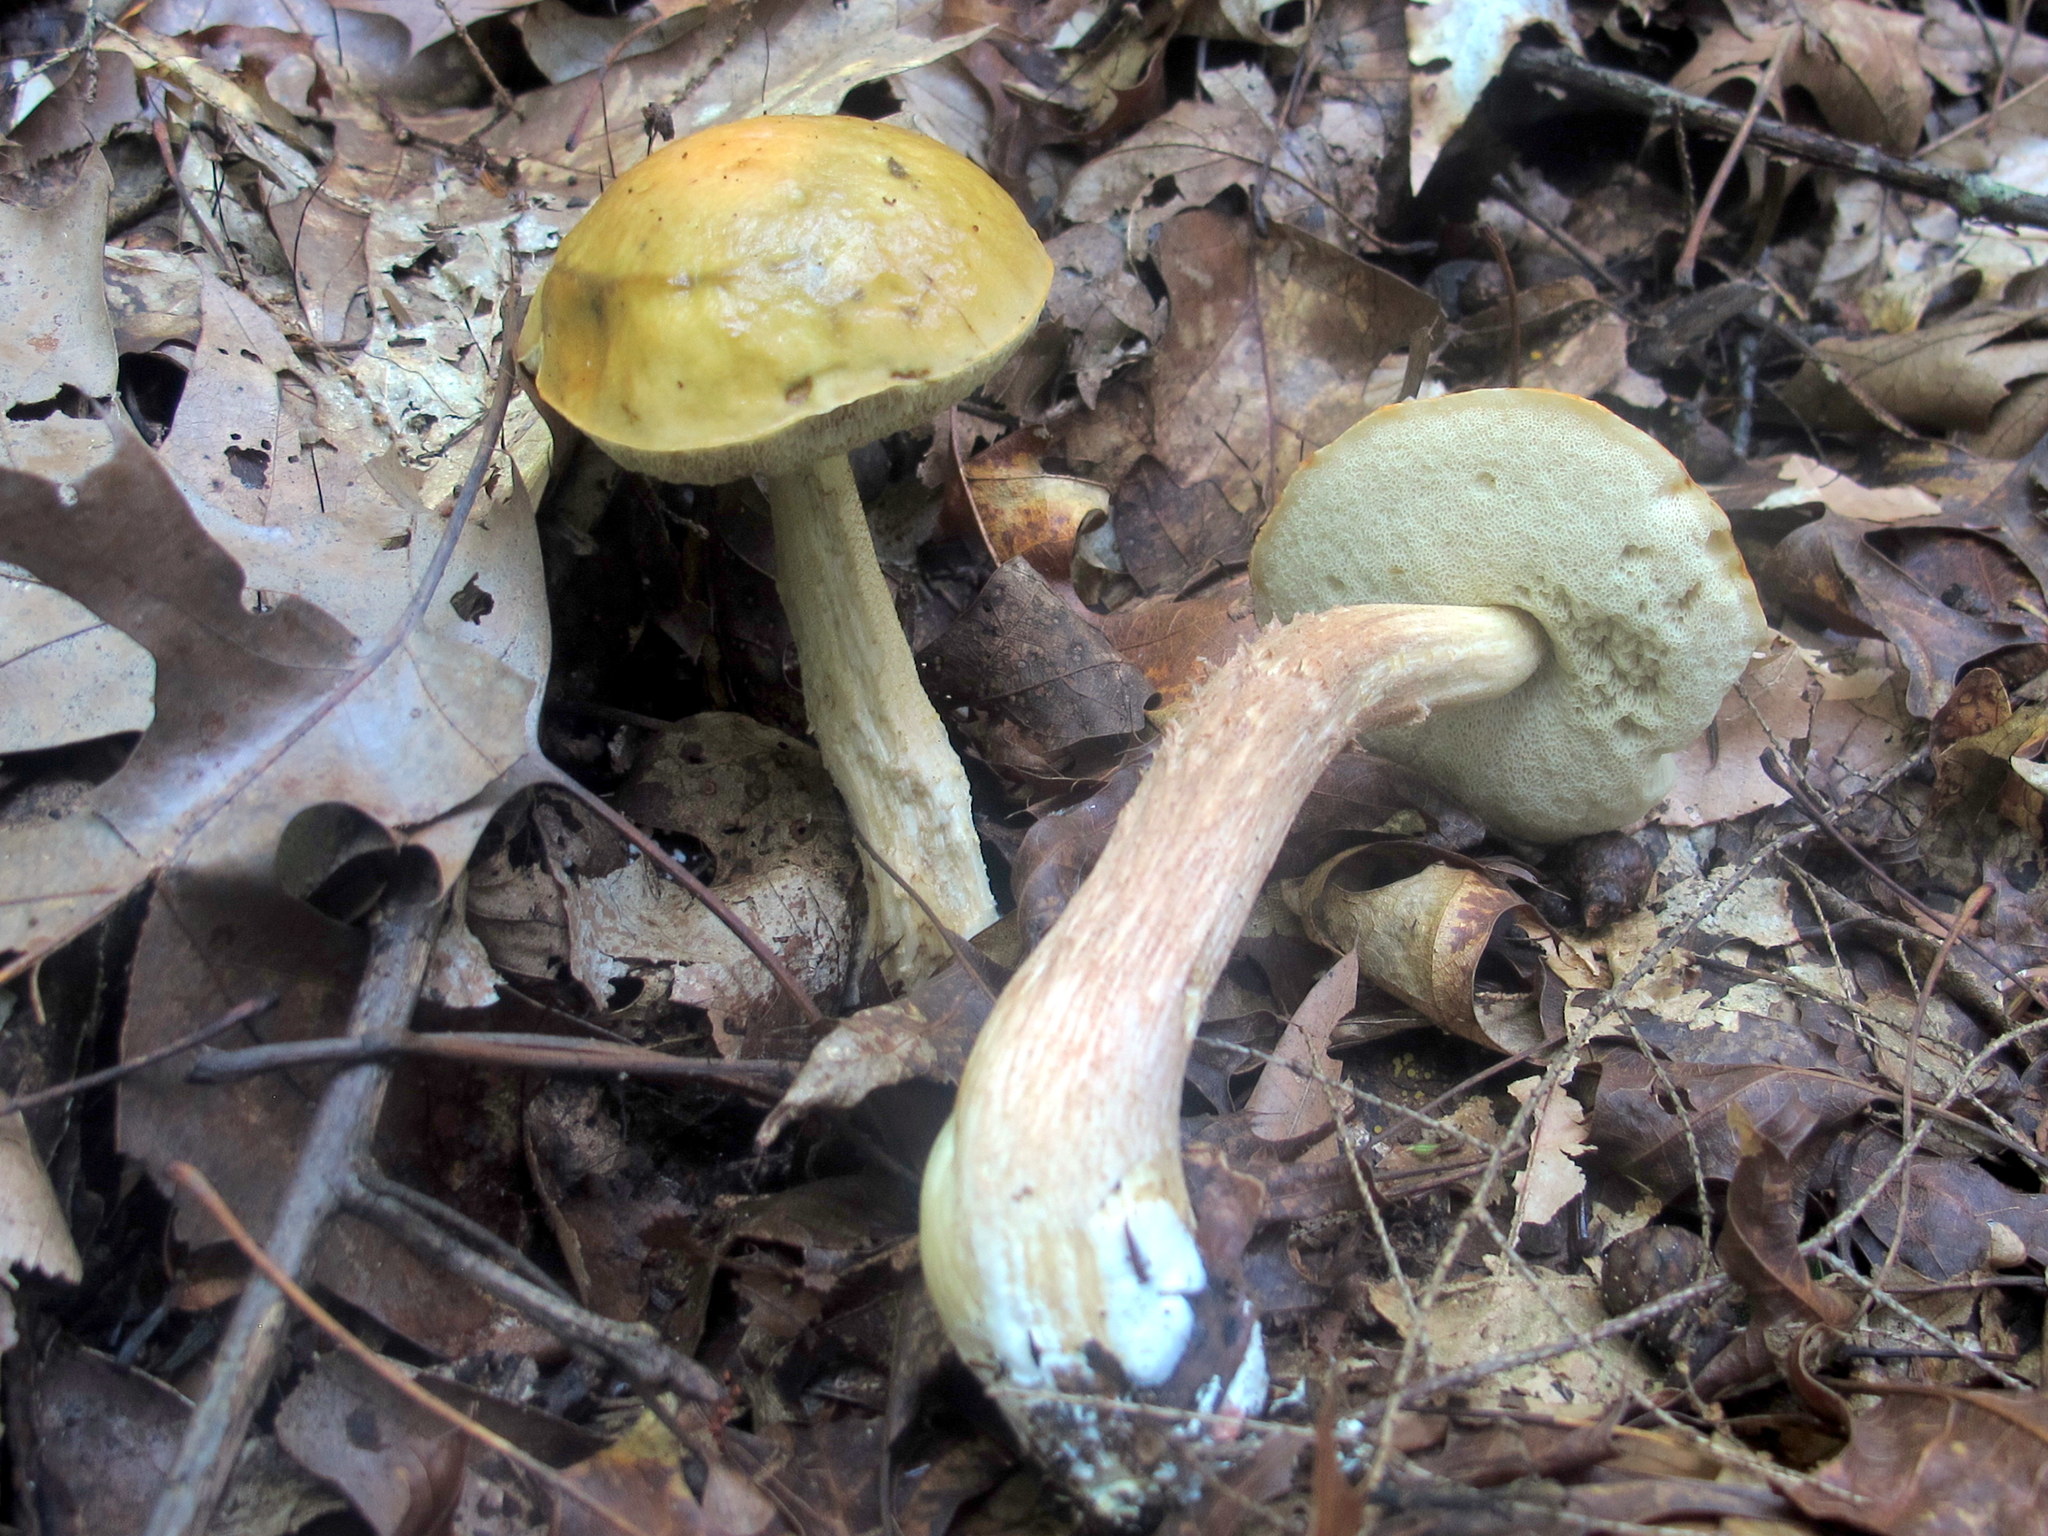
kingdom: Fungi
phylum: Basidiomycota
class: Agaricomycetes
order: Boletales
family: Boletaceae
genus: Leccinum
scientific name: Leccinum longicurvipes
